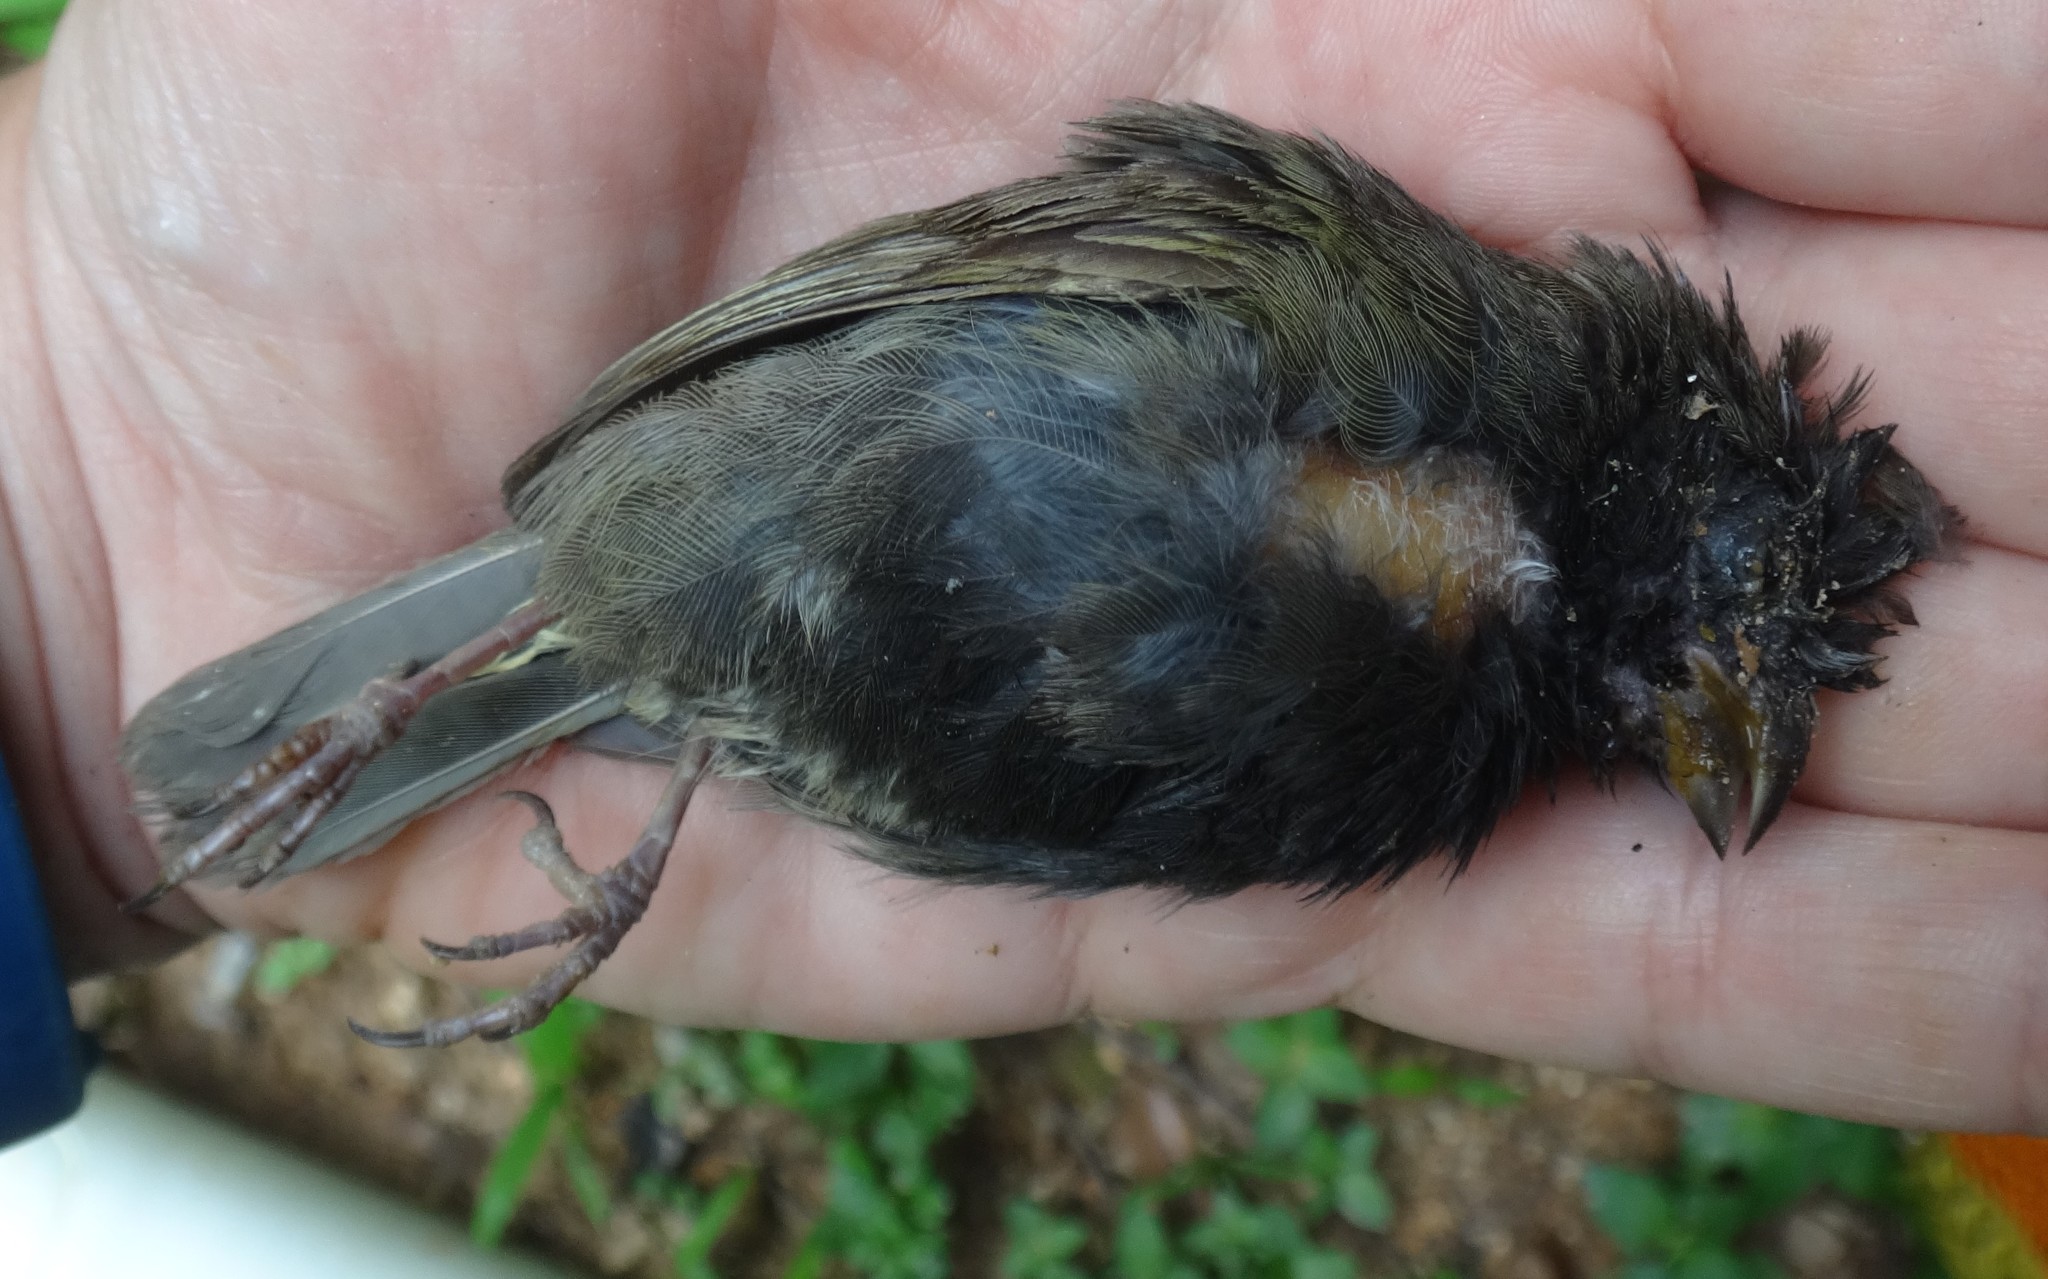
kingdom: Animalia
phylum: Chordata
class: Aves
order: Passeriformes
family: Thraupidae
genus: Melanospiza
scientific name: Melanospiza bicolor
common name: Black-faced grassquit
